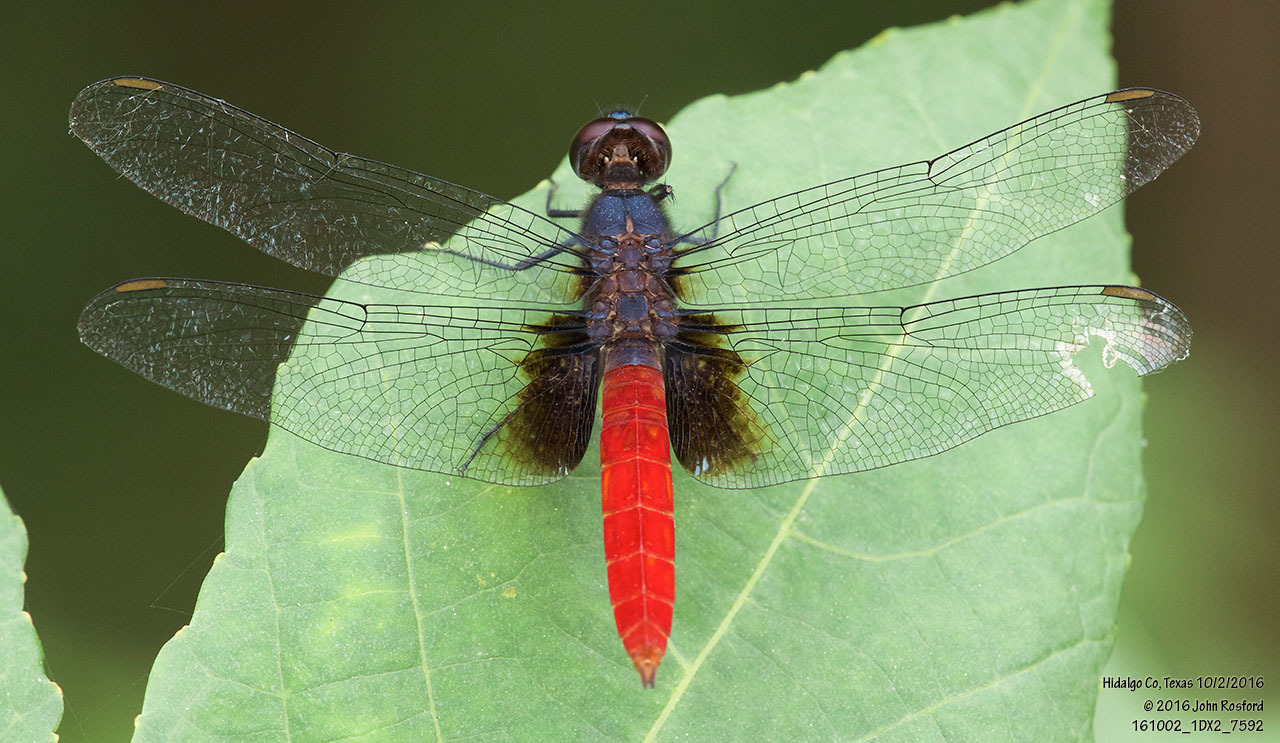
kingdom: Animalia
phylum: Arthropoda
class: Insecta
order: Odonata
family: Libellulidae
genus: Planiplax
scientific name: Planiplax sanguiniventris
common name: Mexican scarlet-tail
